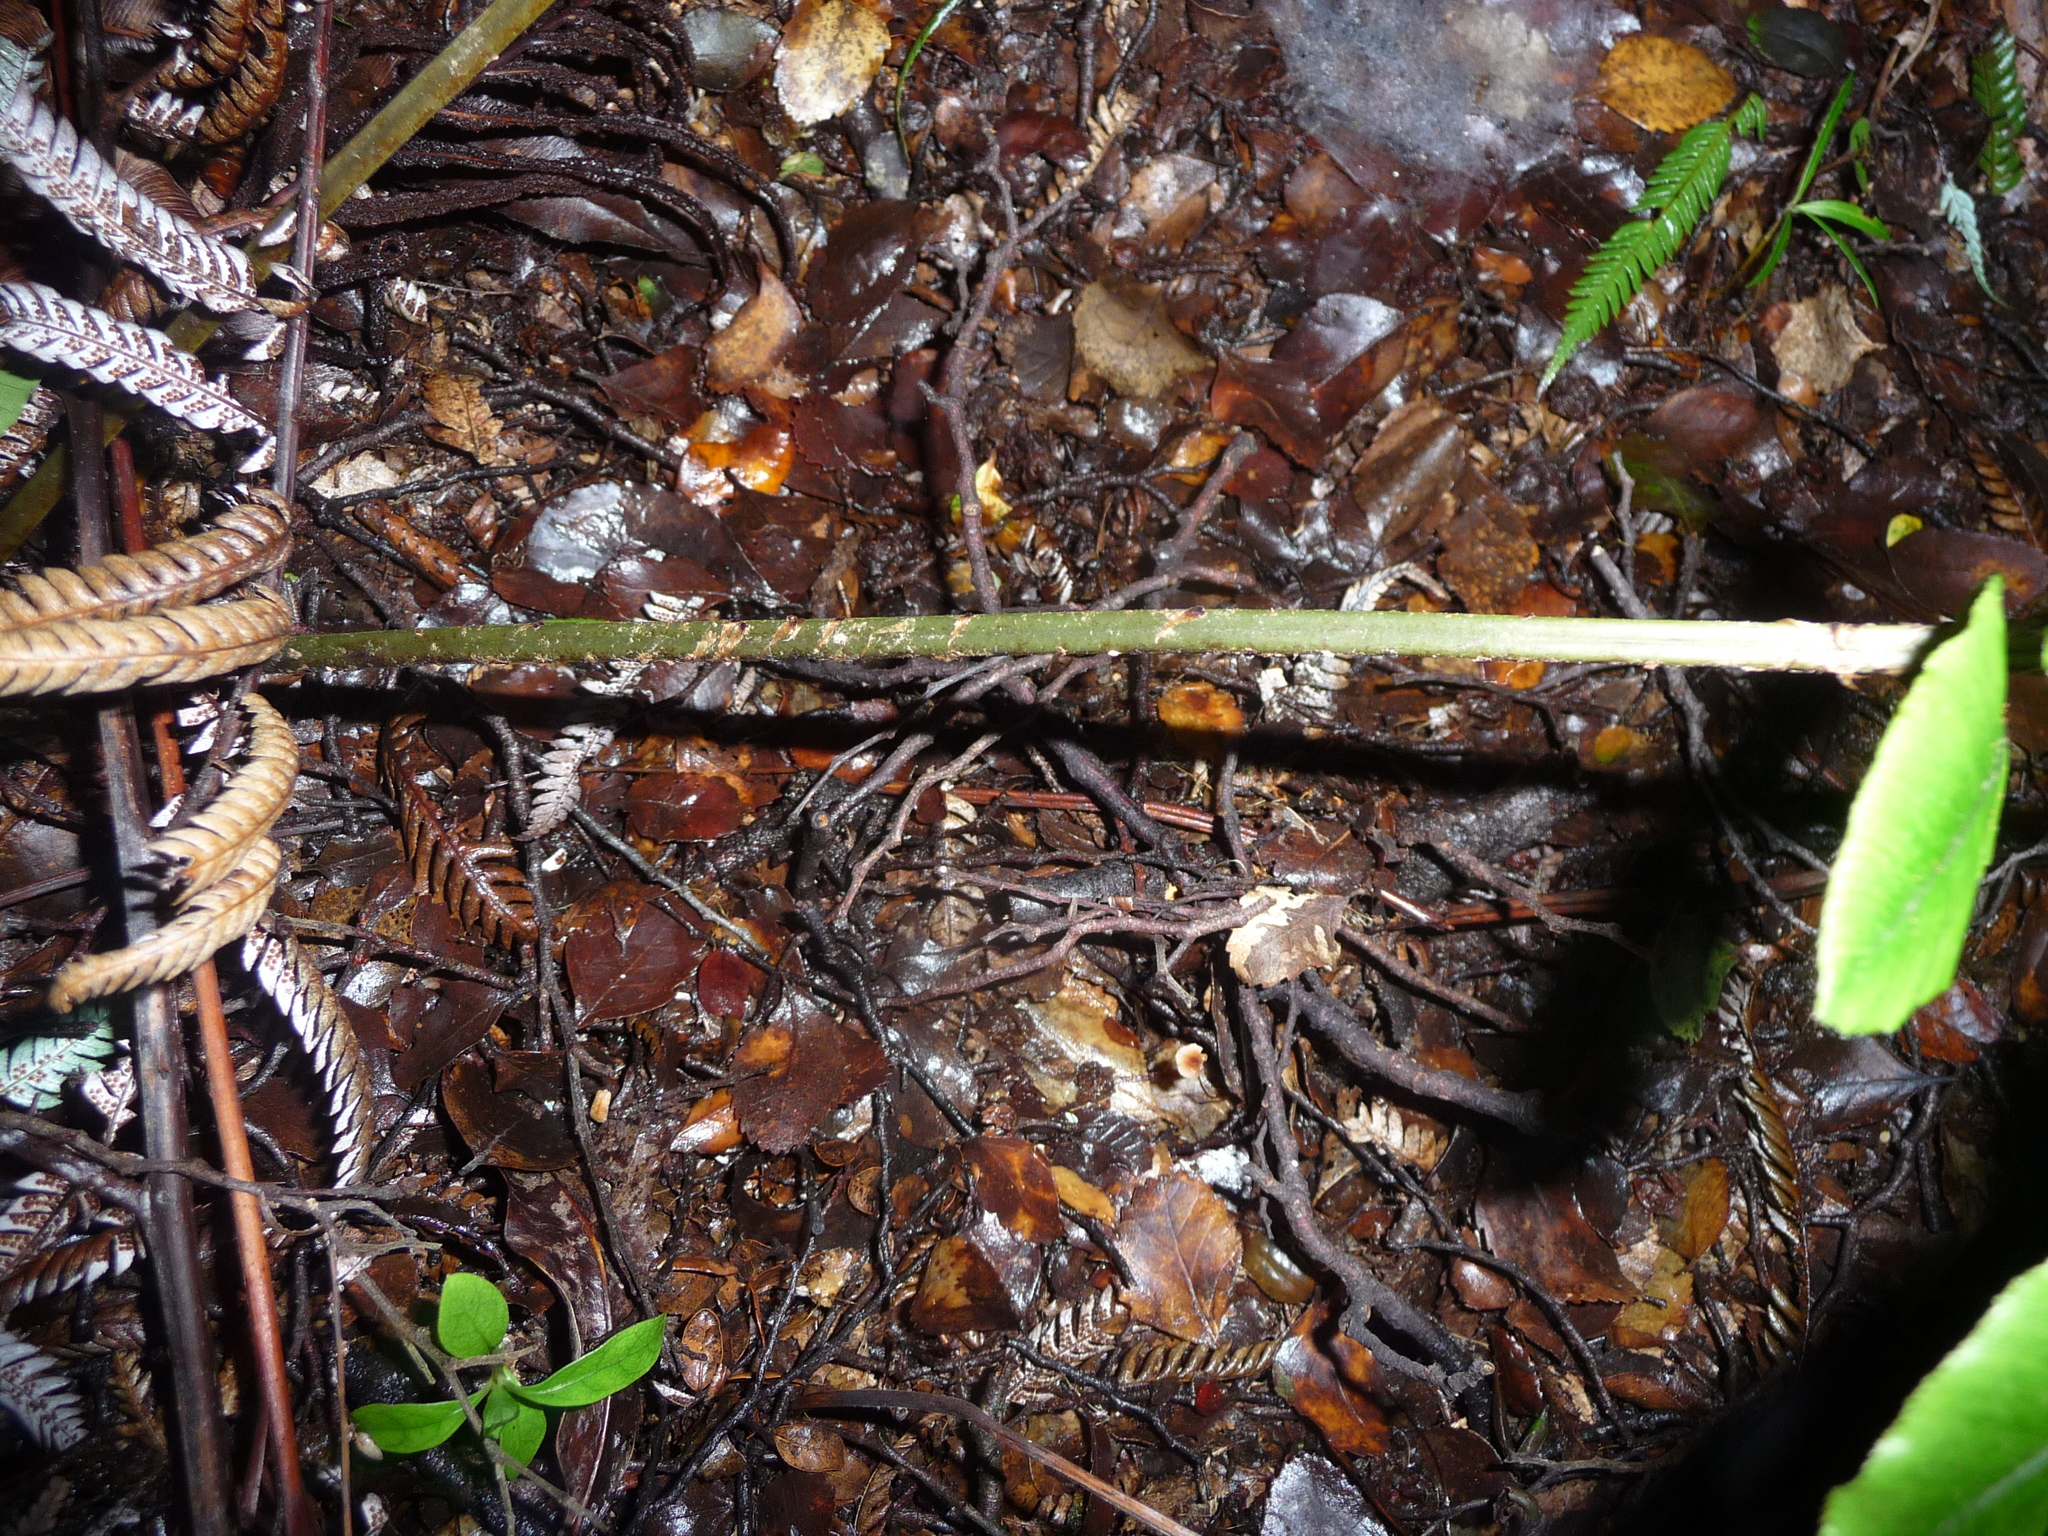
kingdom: Plantae
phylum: Tracheophyta
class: Polypodiopsida
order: Polypodiales
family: Blechnaceae
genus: Parablechnum
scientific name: Parablechnum novae-zelandiae
